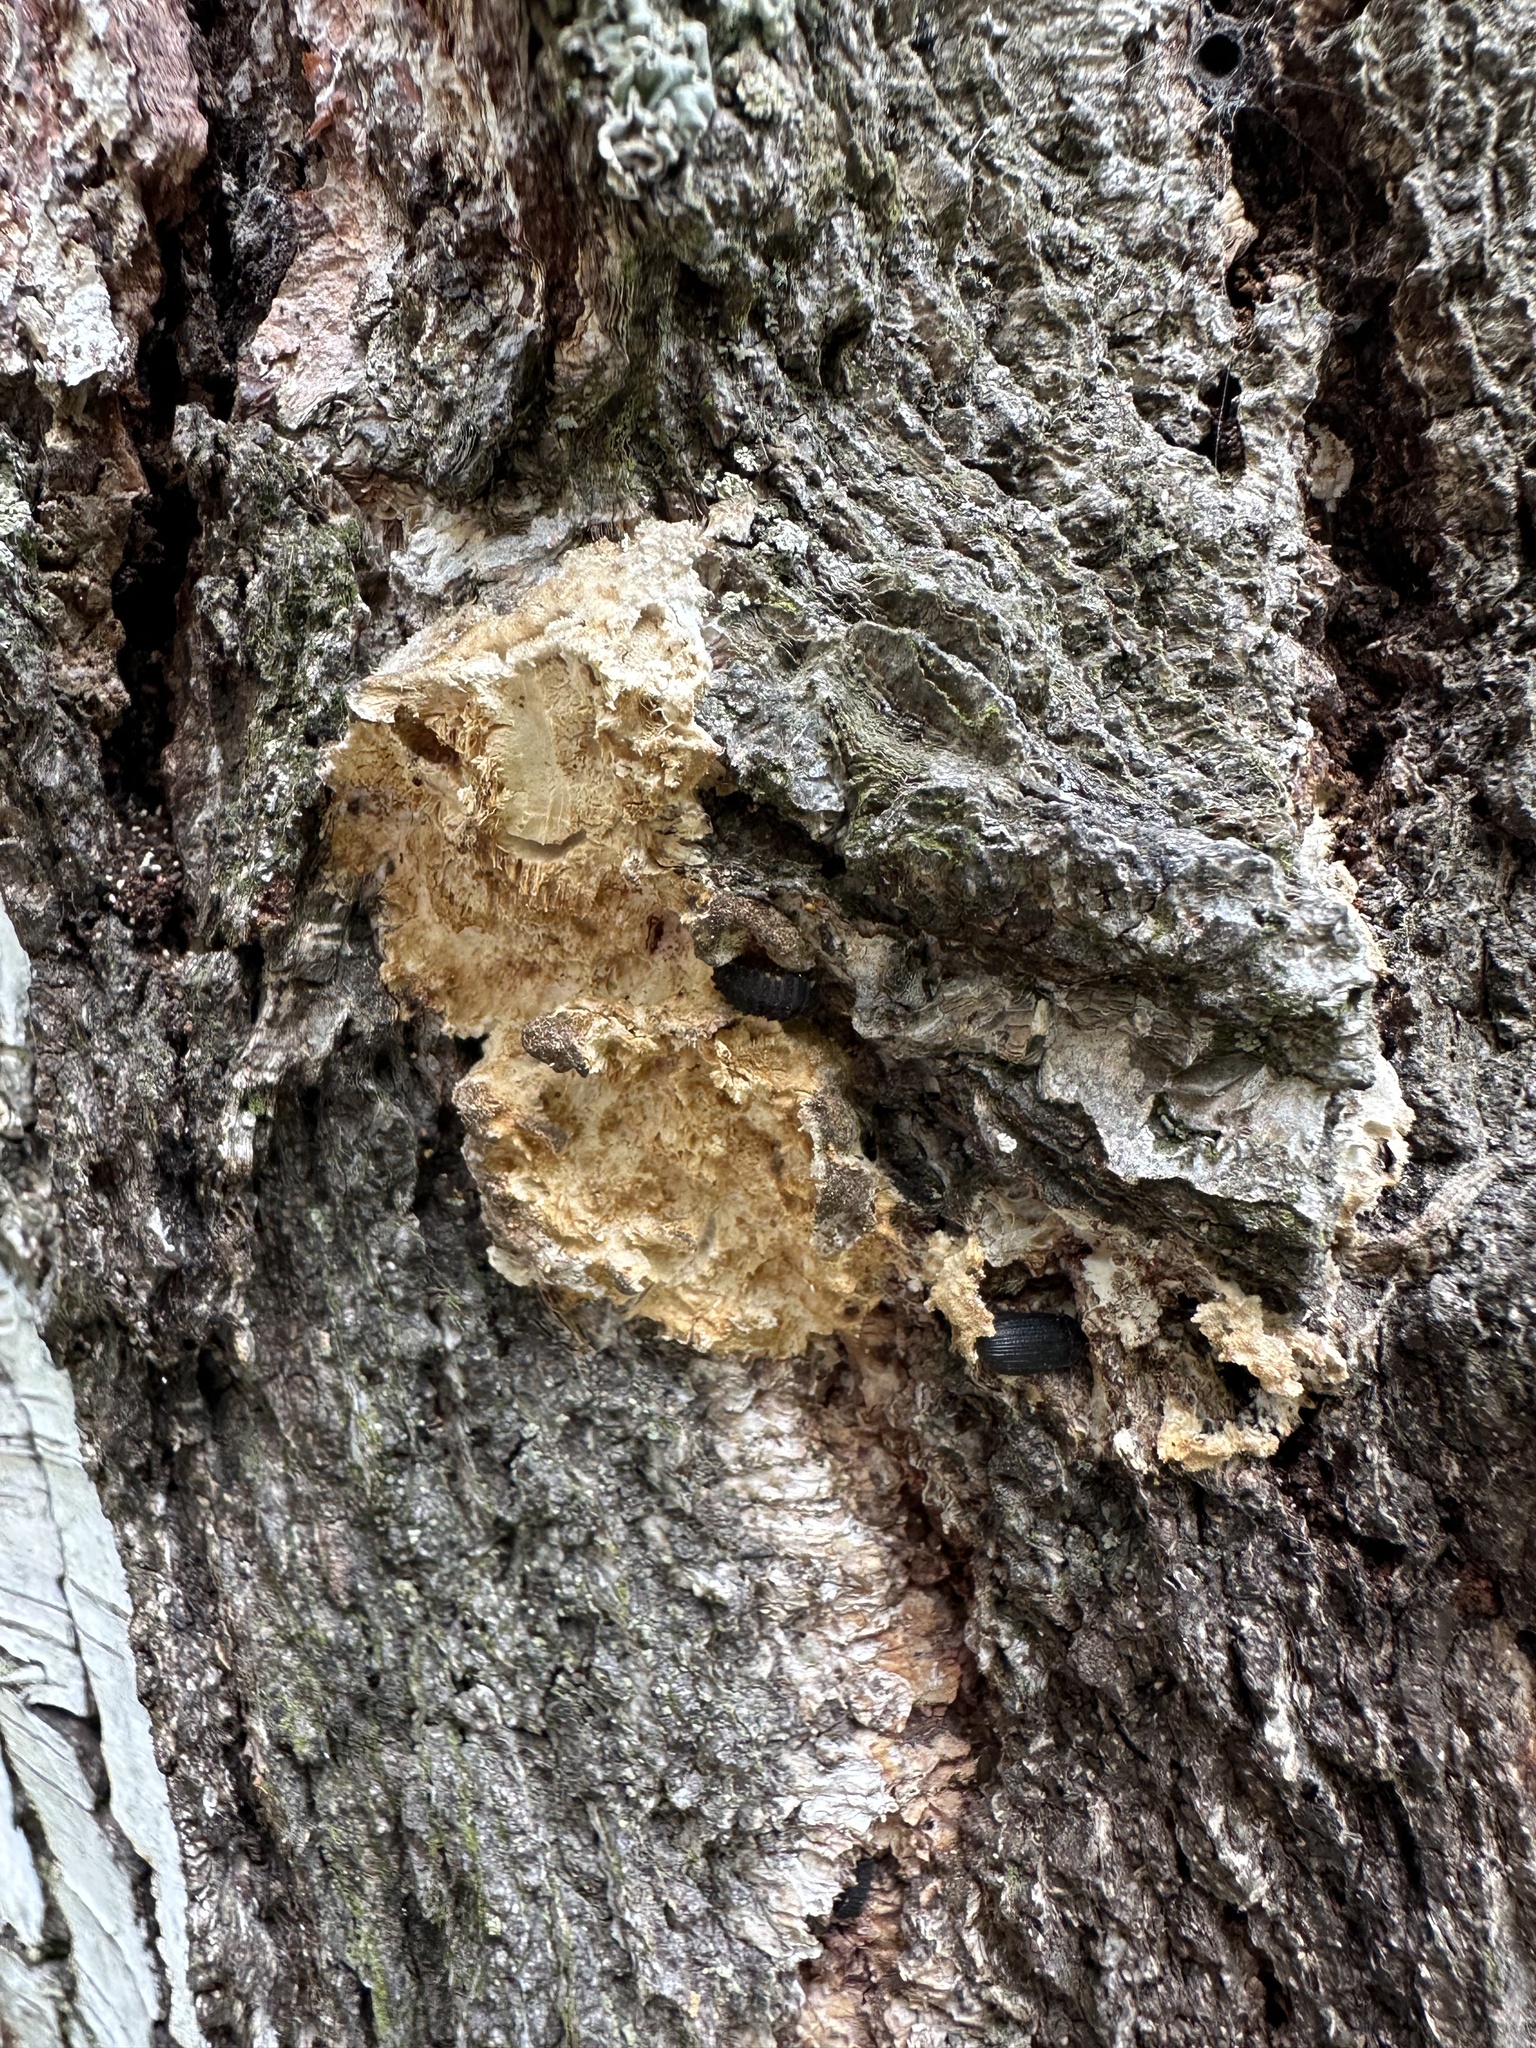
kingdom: Animalia
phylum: Arthropoda
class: Insecta
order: Coleoptera
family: Endomychidae
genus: Endomychus
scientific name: Endomychus coccineus
